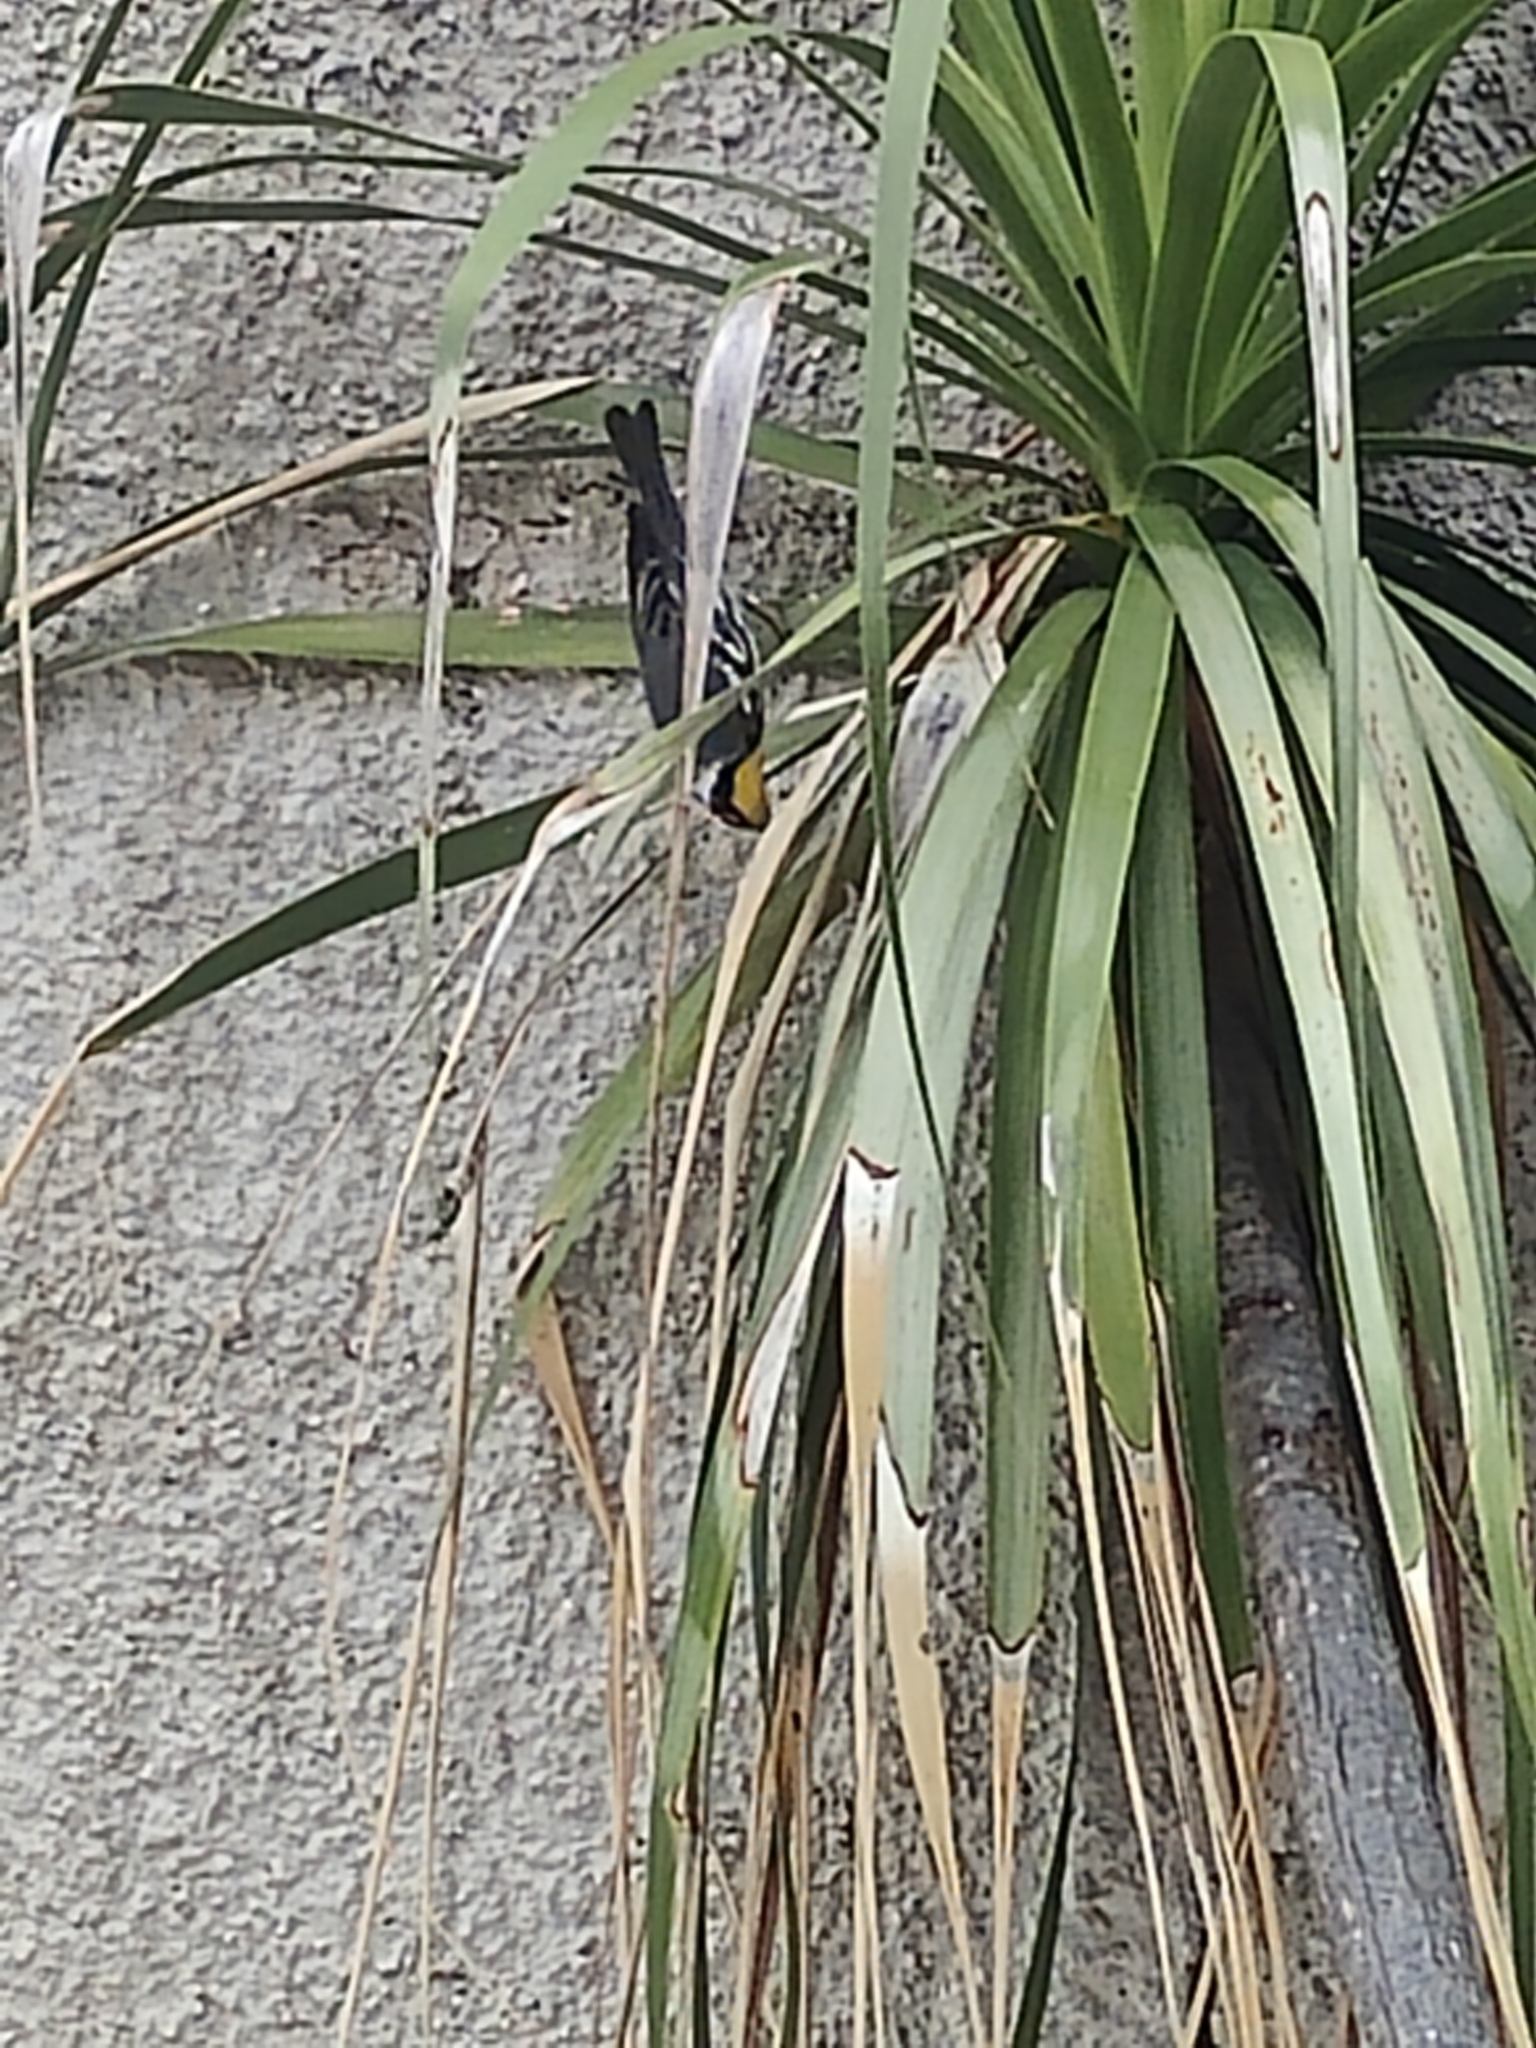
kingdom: Animalia
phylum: Chordata
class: Aves
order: Passeriformes
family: Parulidae
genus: Setophaga
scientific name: Setophaga dominica
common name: Yellow-throated warbler
